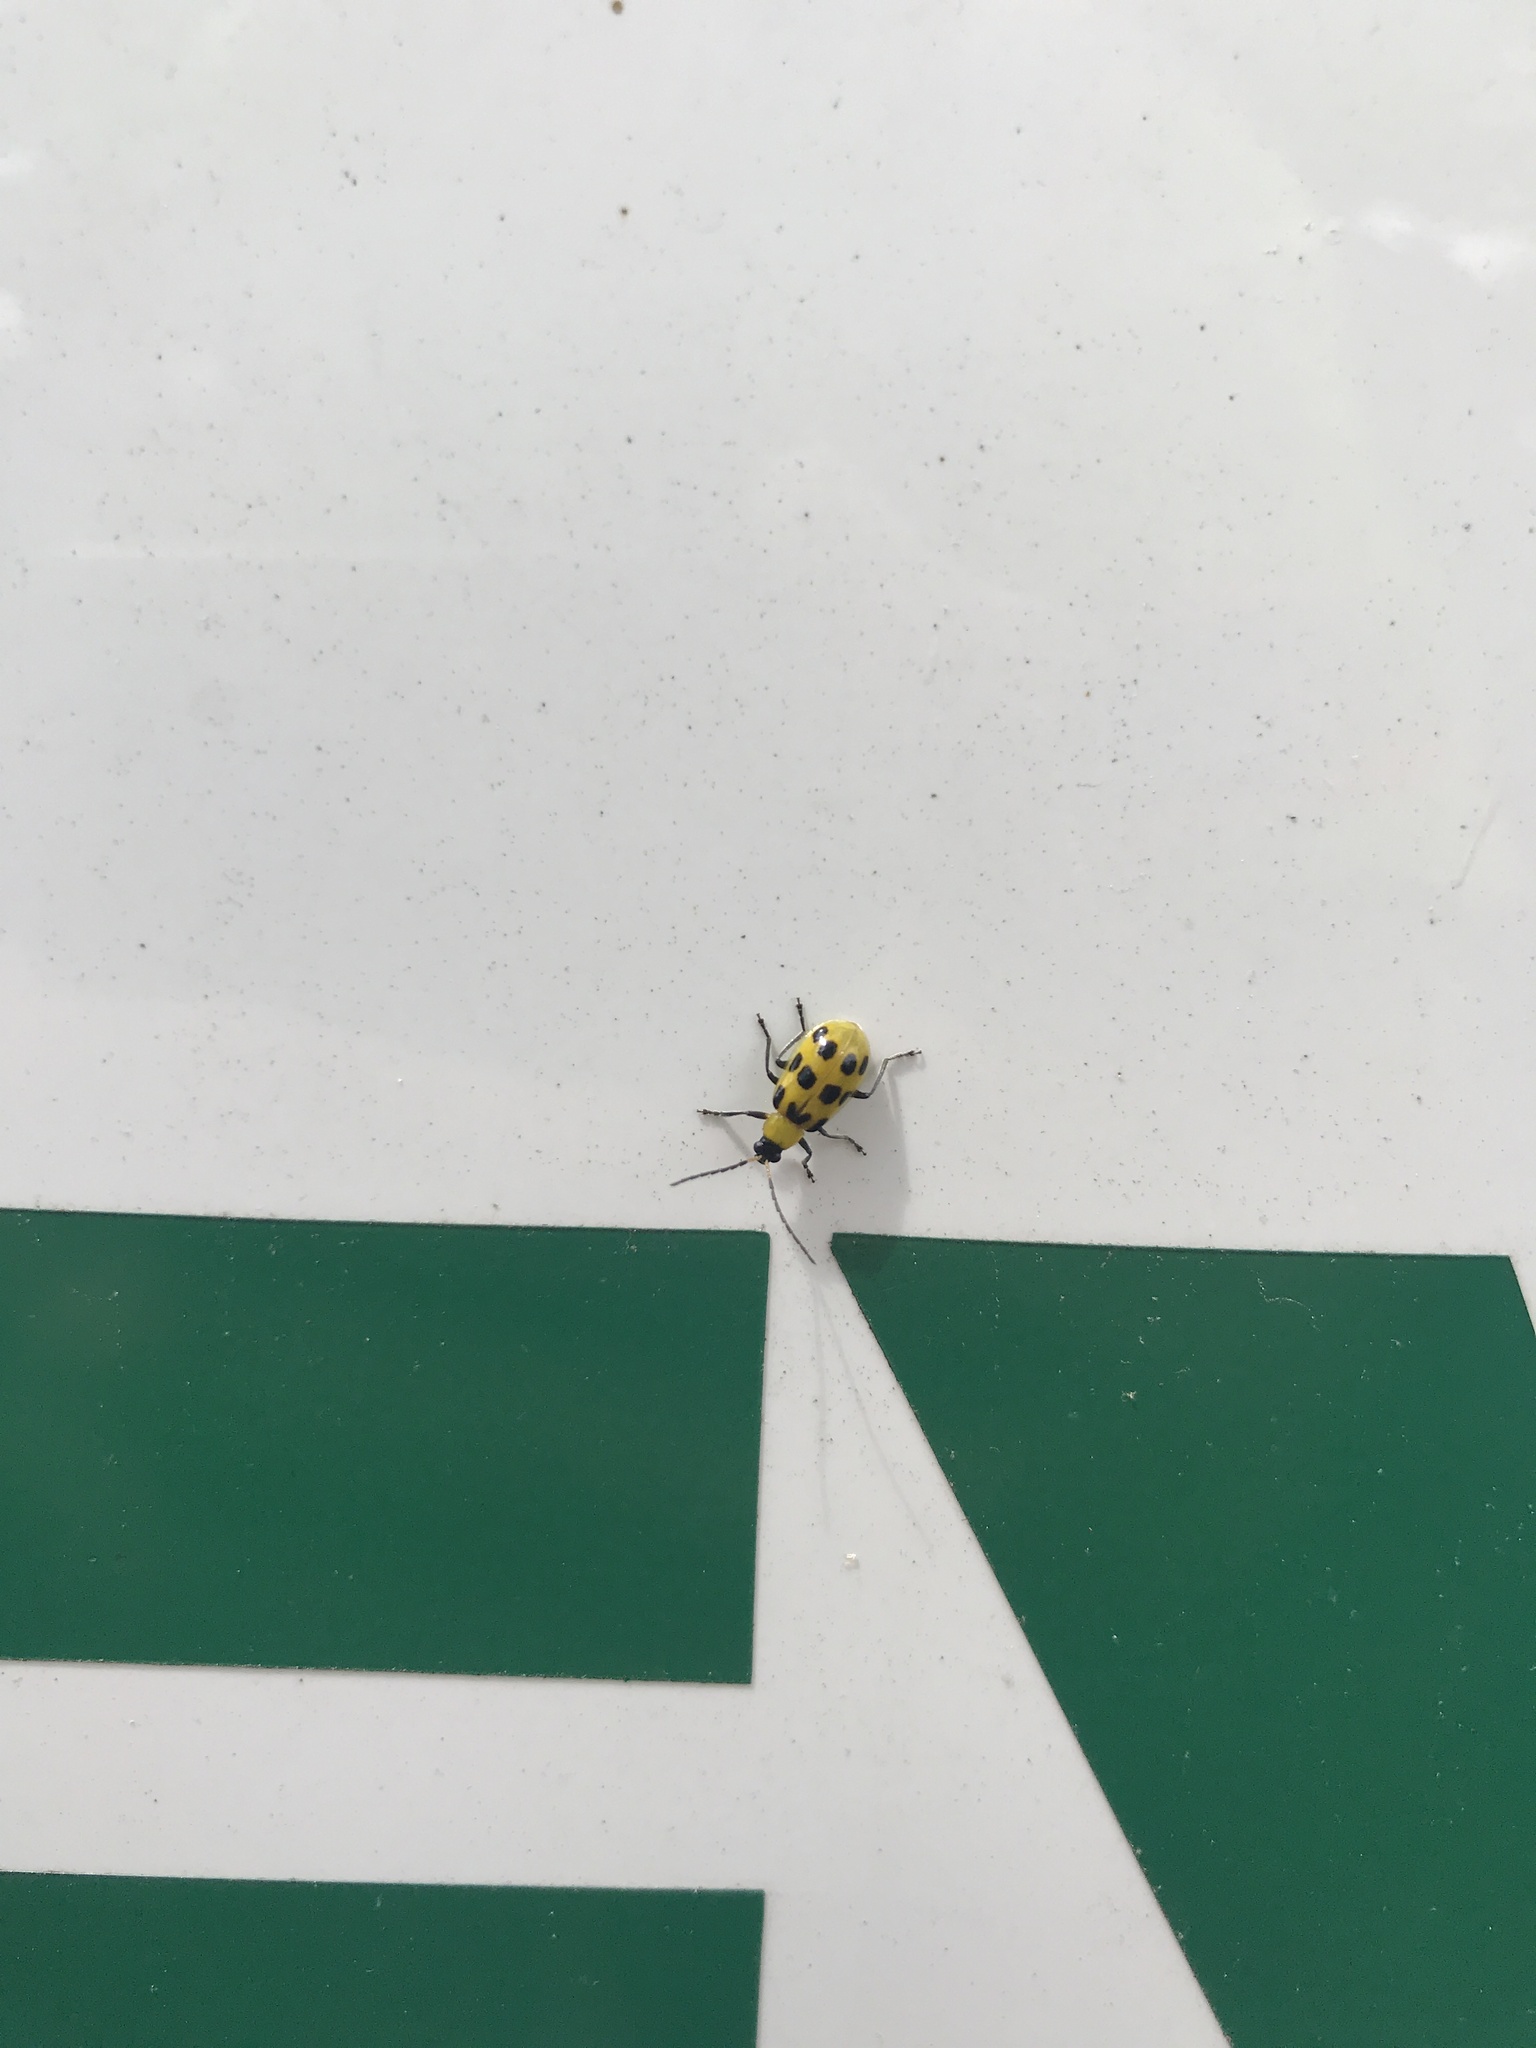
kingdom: Animalia
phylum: Arthropoda
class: Insecta
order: Coleoptera
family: Chrysomelidae
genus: Diabrotica
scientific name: Diabrotica undecimpunctata
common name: Spotted cucumber beetle
